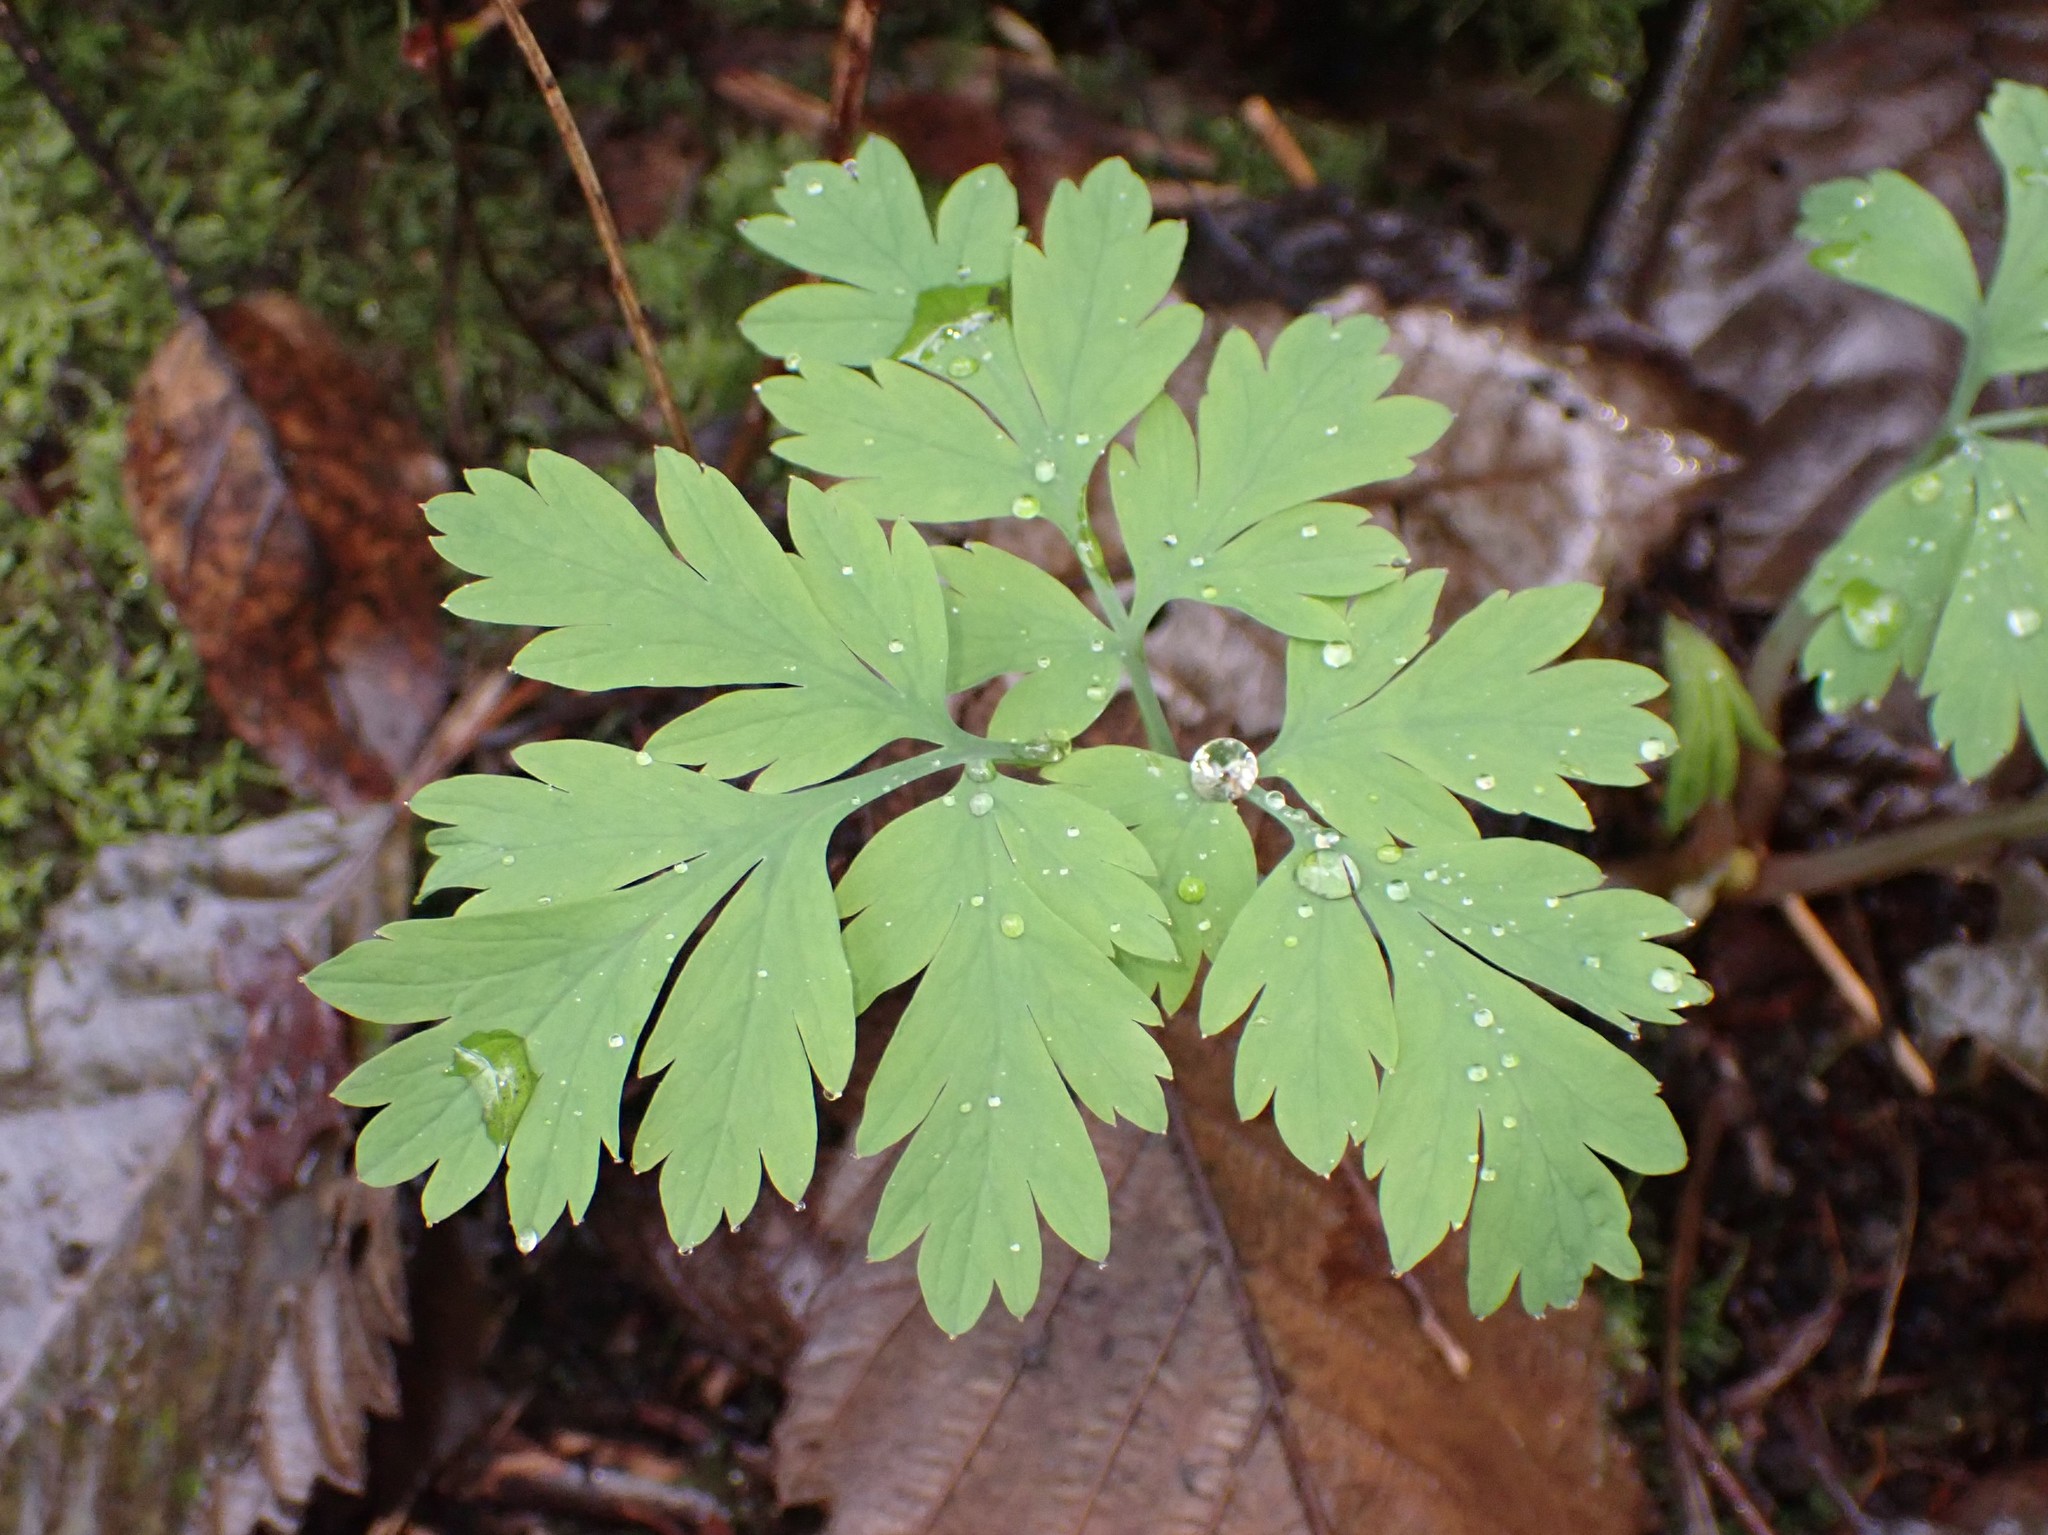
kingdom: Plantae
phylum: Tracheophyta
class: Magnoliopsida
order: Ranunculales
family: Papaveraceae
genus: Dicentra
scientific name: Dicentra formosa
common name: Bleeding-heart
